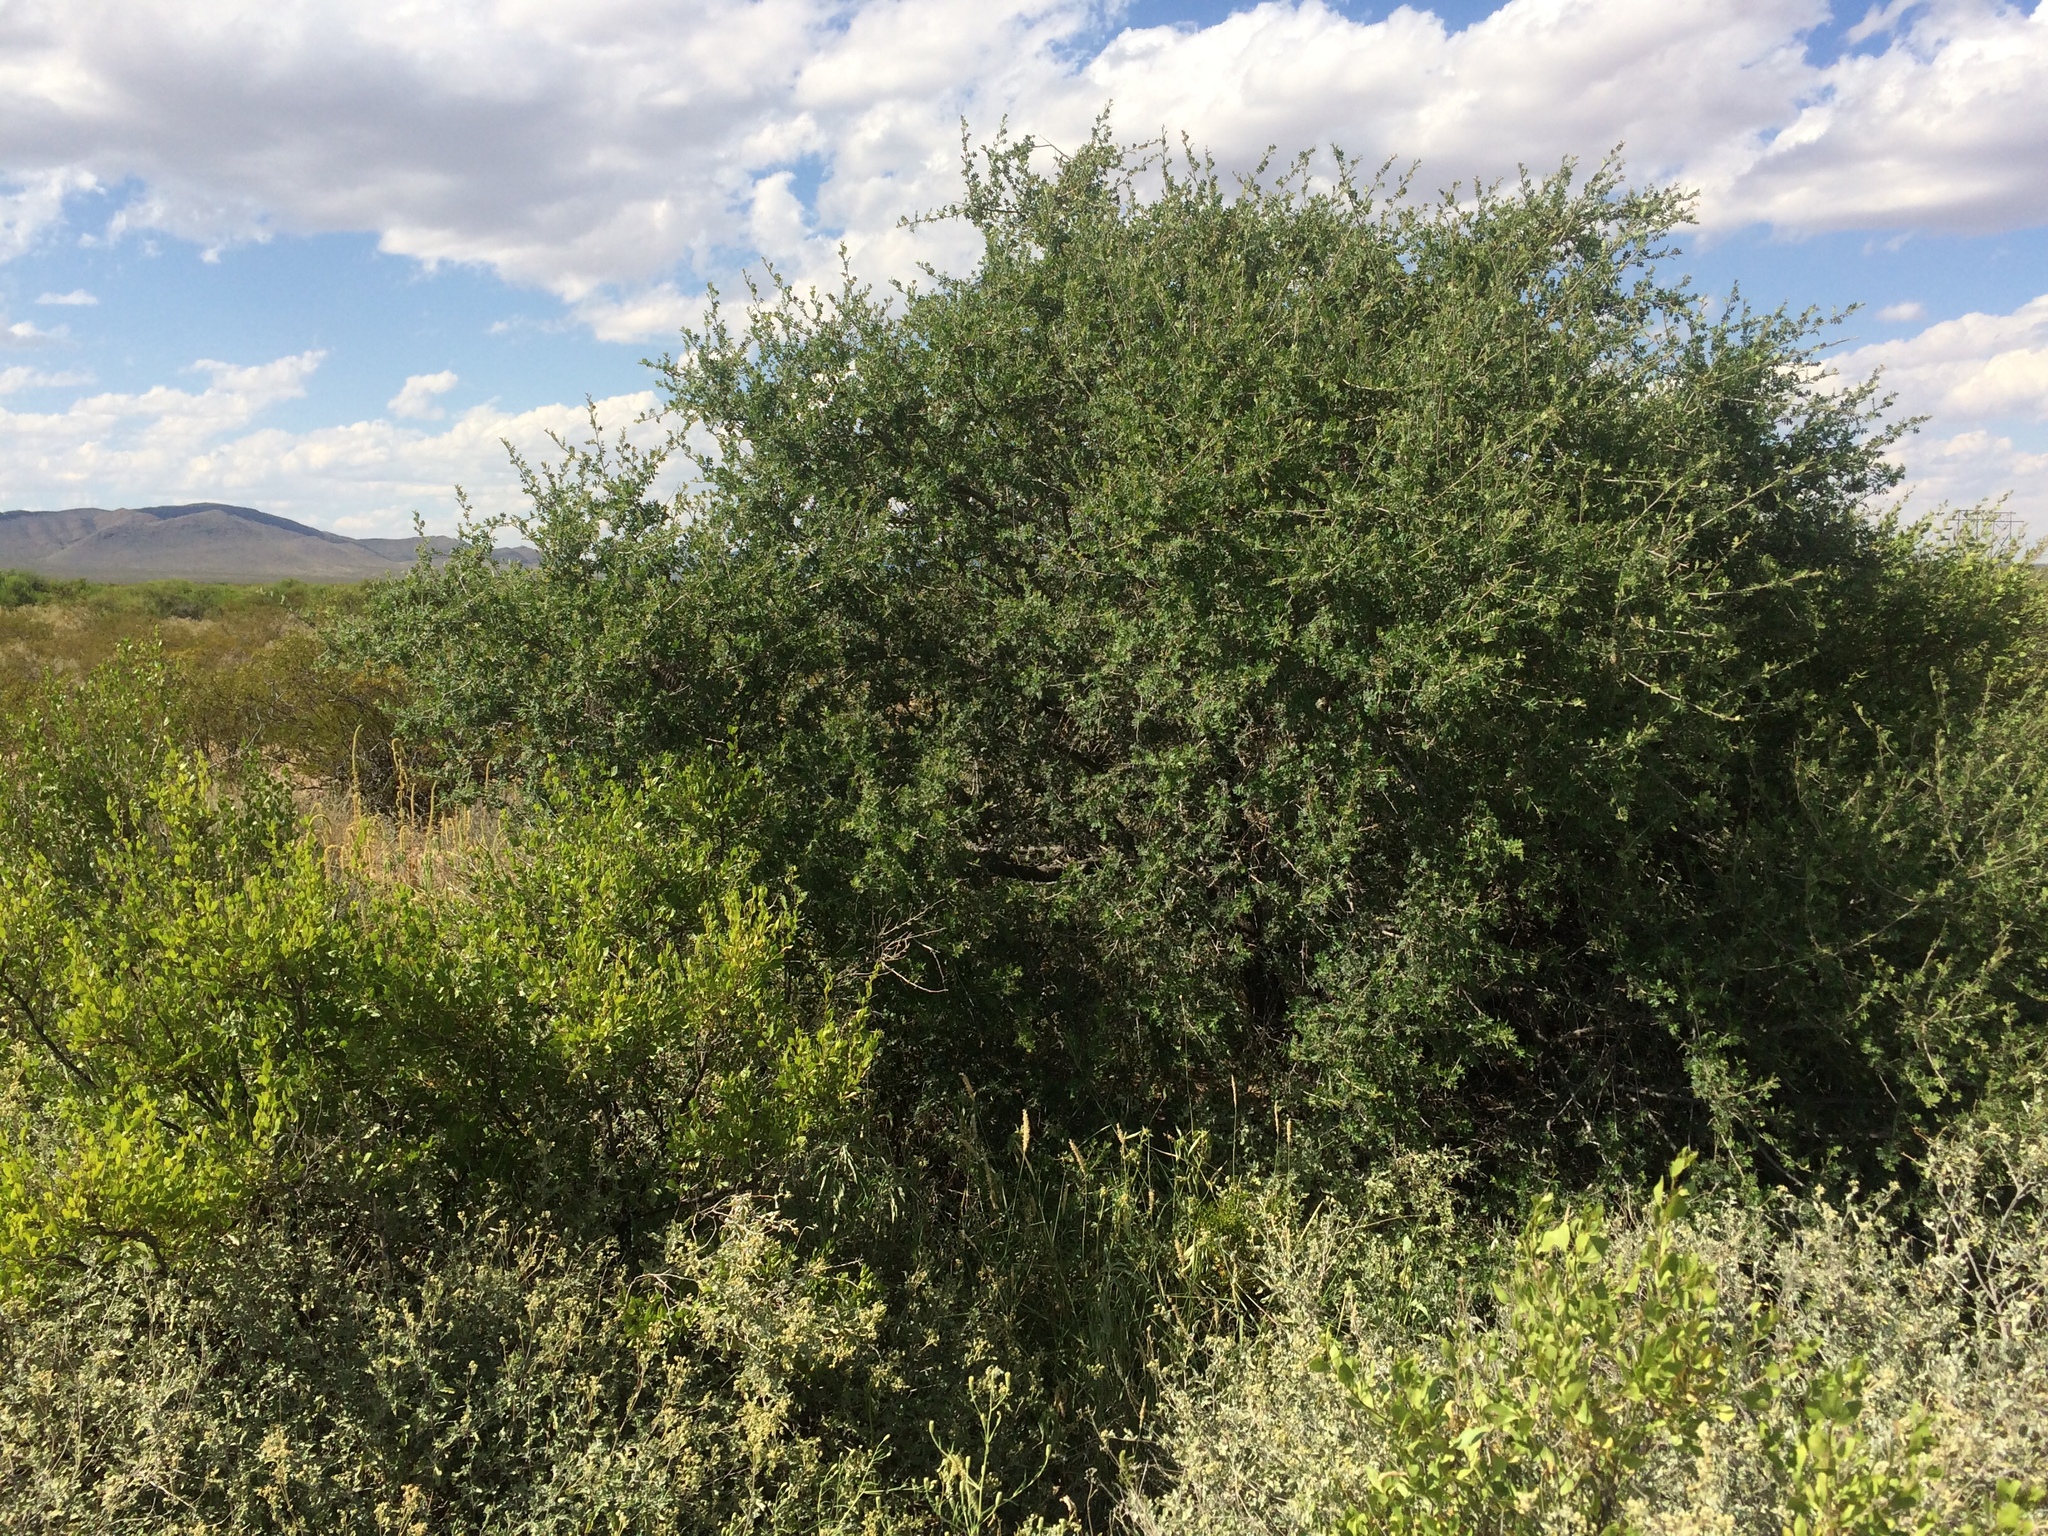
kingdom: Plantae
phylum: Tracheophyta
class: Magnoliopsida
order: Sapindales
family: Anacardiaceae
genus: Rhus
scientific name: Rhus microphylla
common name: Desert sumac
